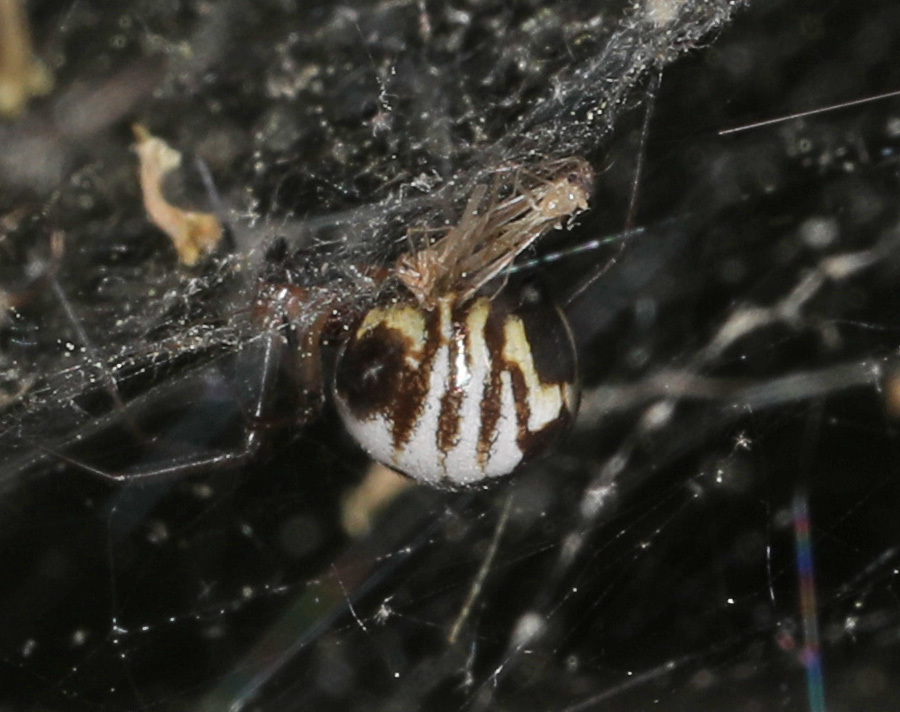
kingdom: Animalia
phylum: Arthropoda
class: Arachnida
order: Araneae
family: Linyphiidae
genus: Frontinella
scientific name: Frontinella pyramitela
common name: Bowl-and-doily spider
